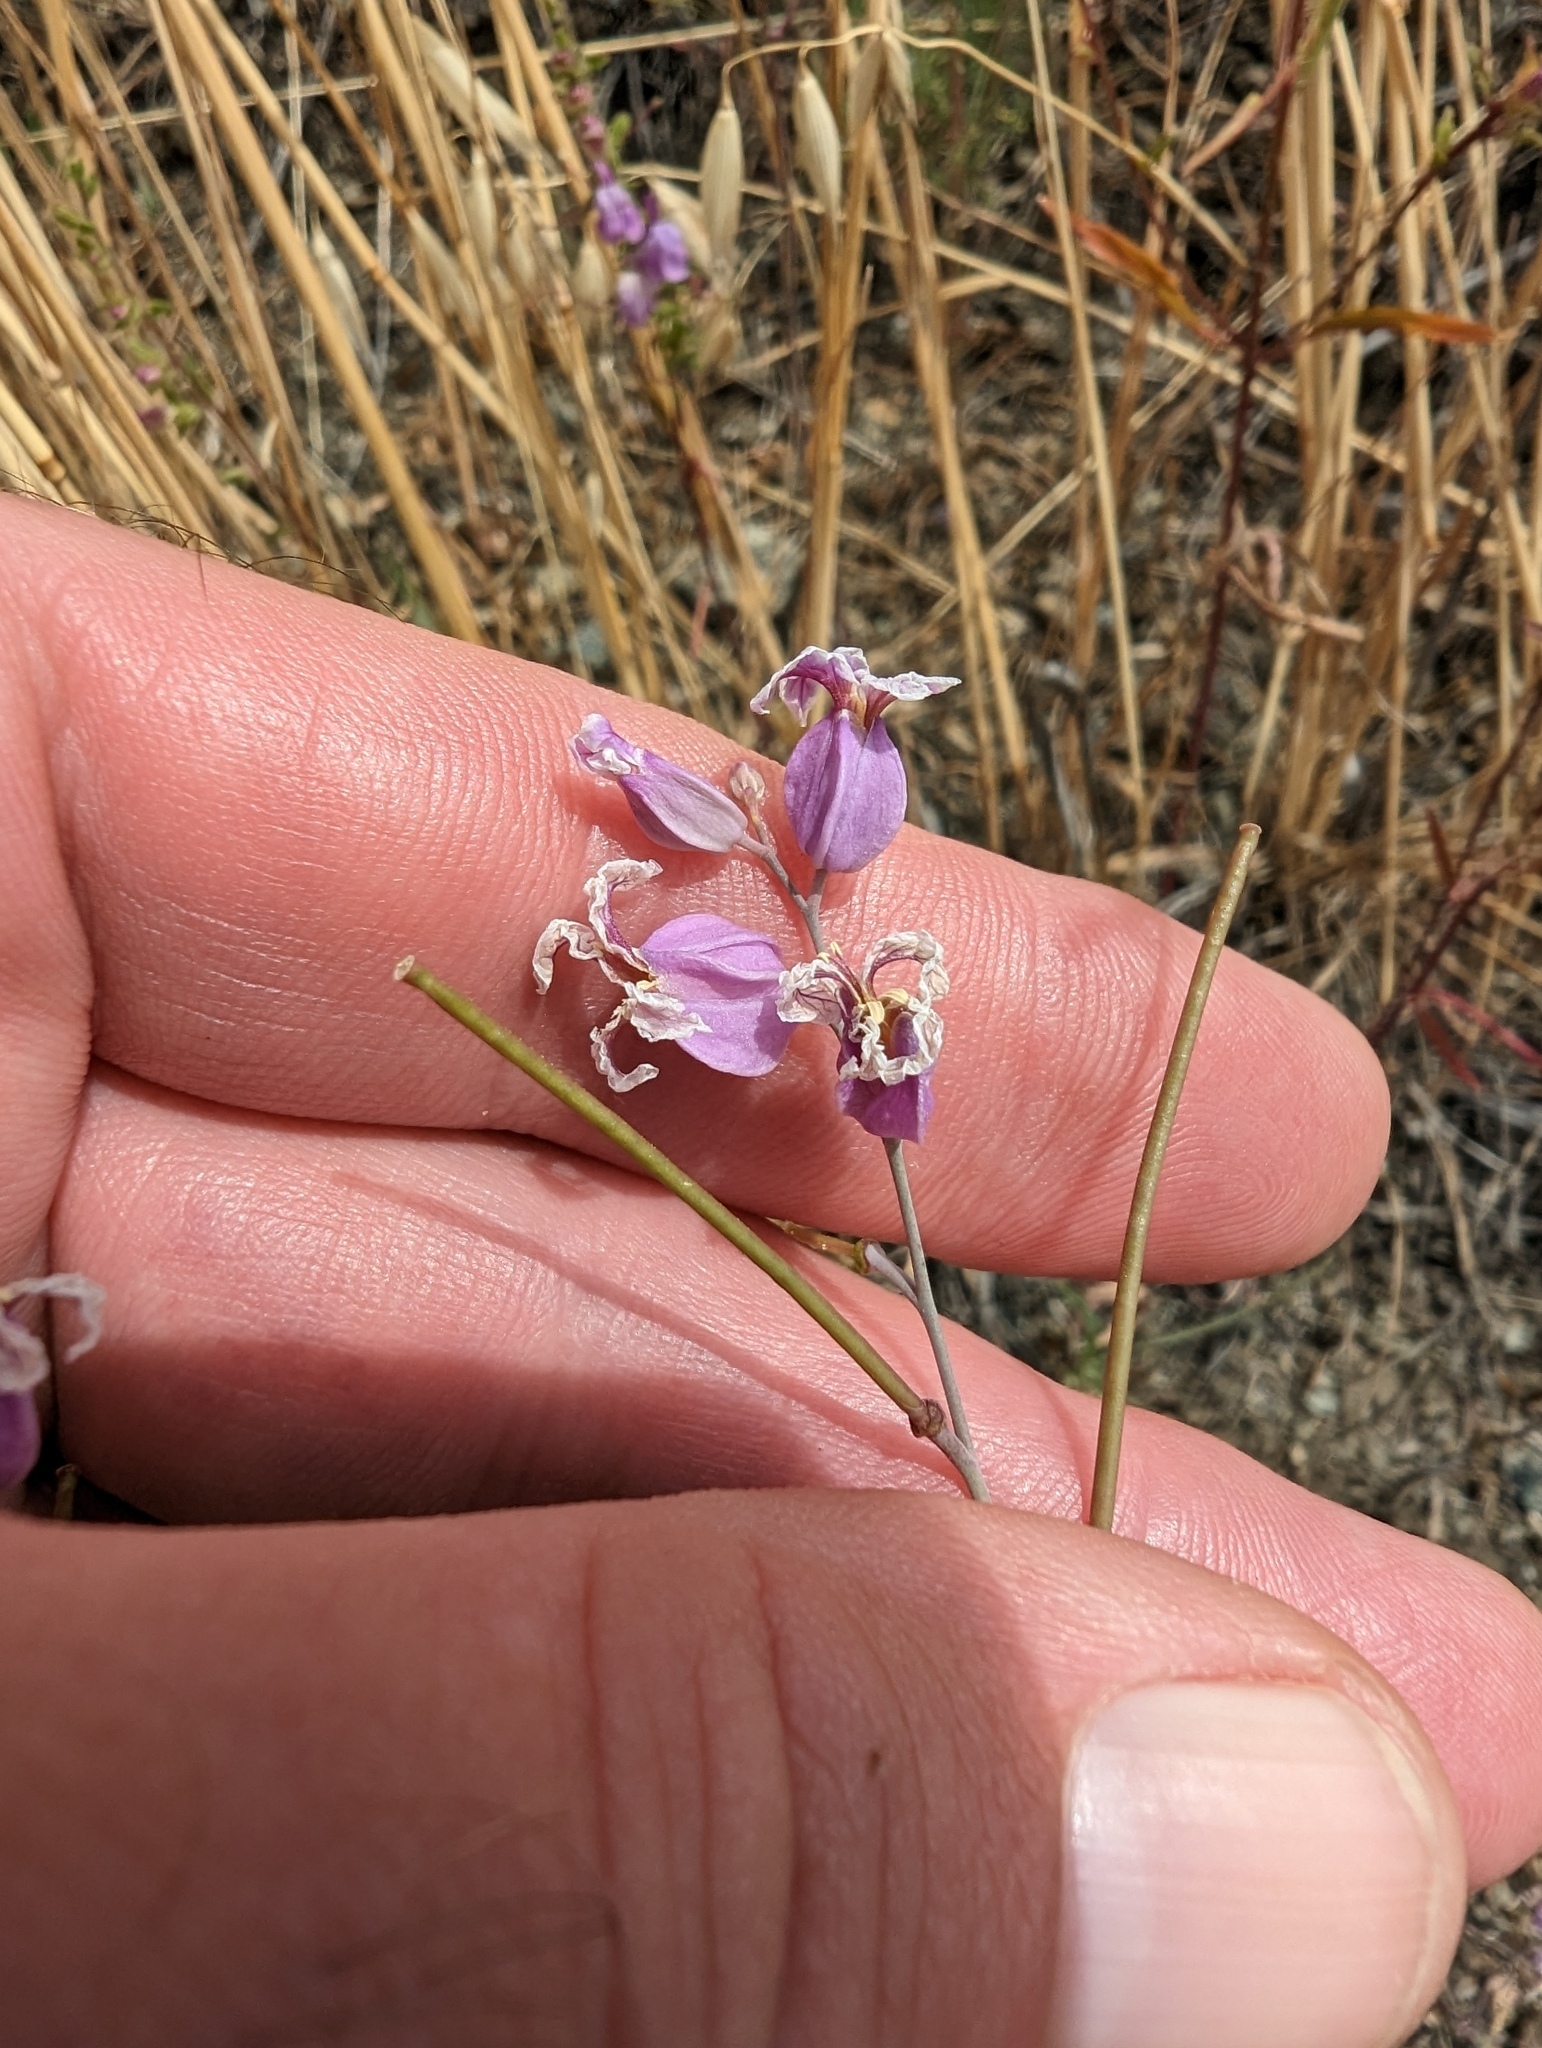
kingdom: Plantae
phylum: Tracheophyta
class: Magnoliopsida
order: Brassicales
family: Brassicaceae
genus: Streptanthus
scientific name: Streptanthus glandulosus
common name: Jewel-flower
